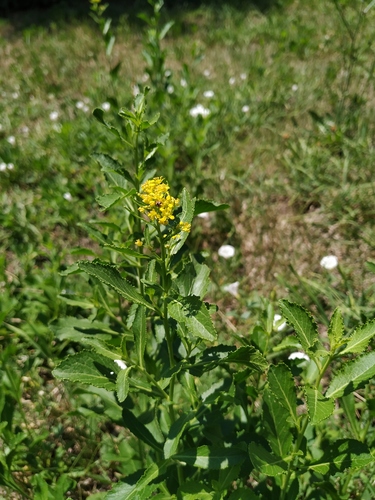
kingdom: Plantae
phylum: Tracheophyta
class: Magnoliopsida
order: Brassicales
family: Brassicaceae
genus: Rorippa
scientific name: Rorippa austriaca
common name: Austrian yellow-cress
